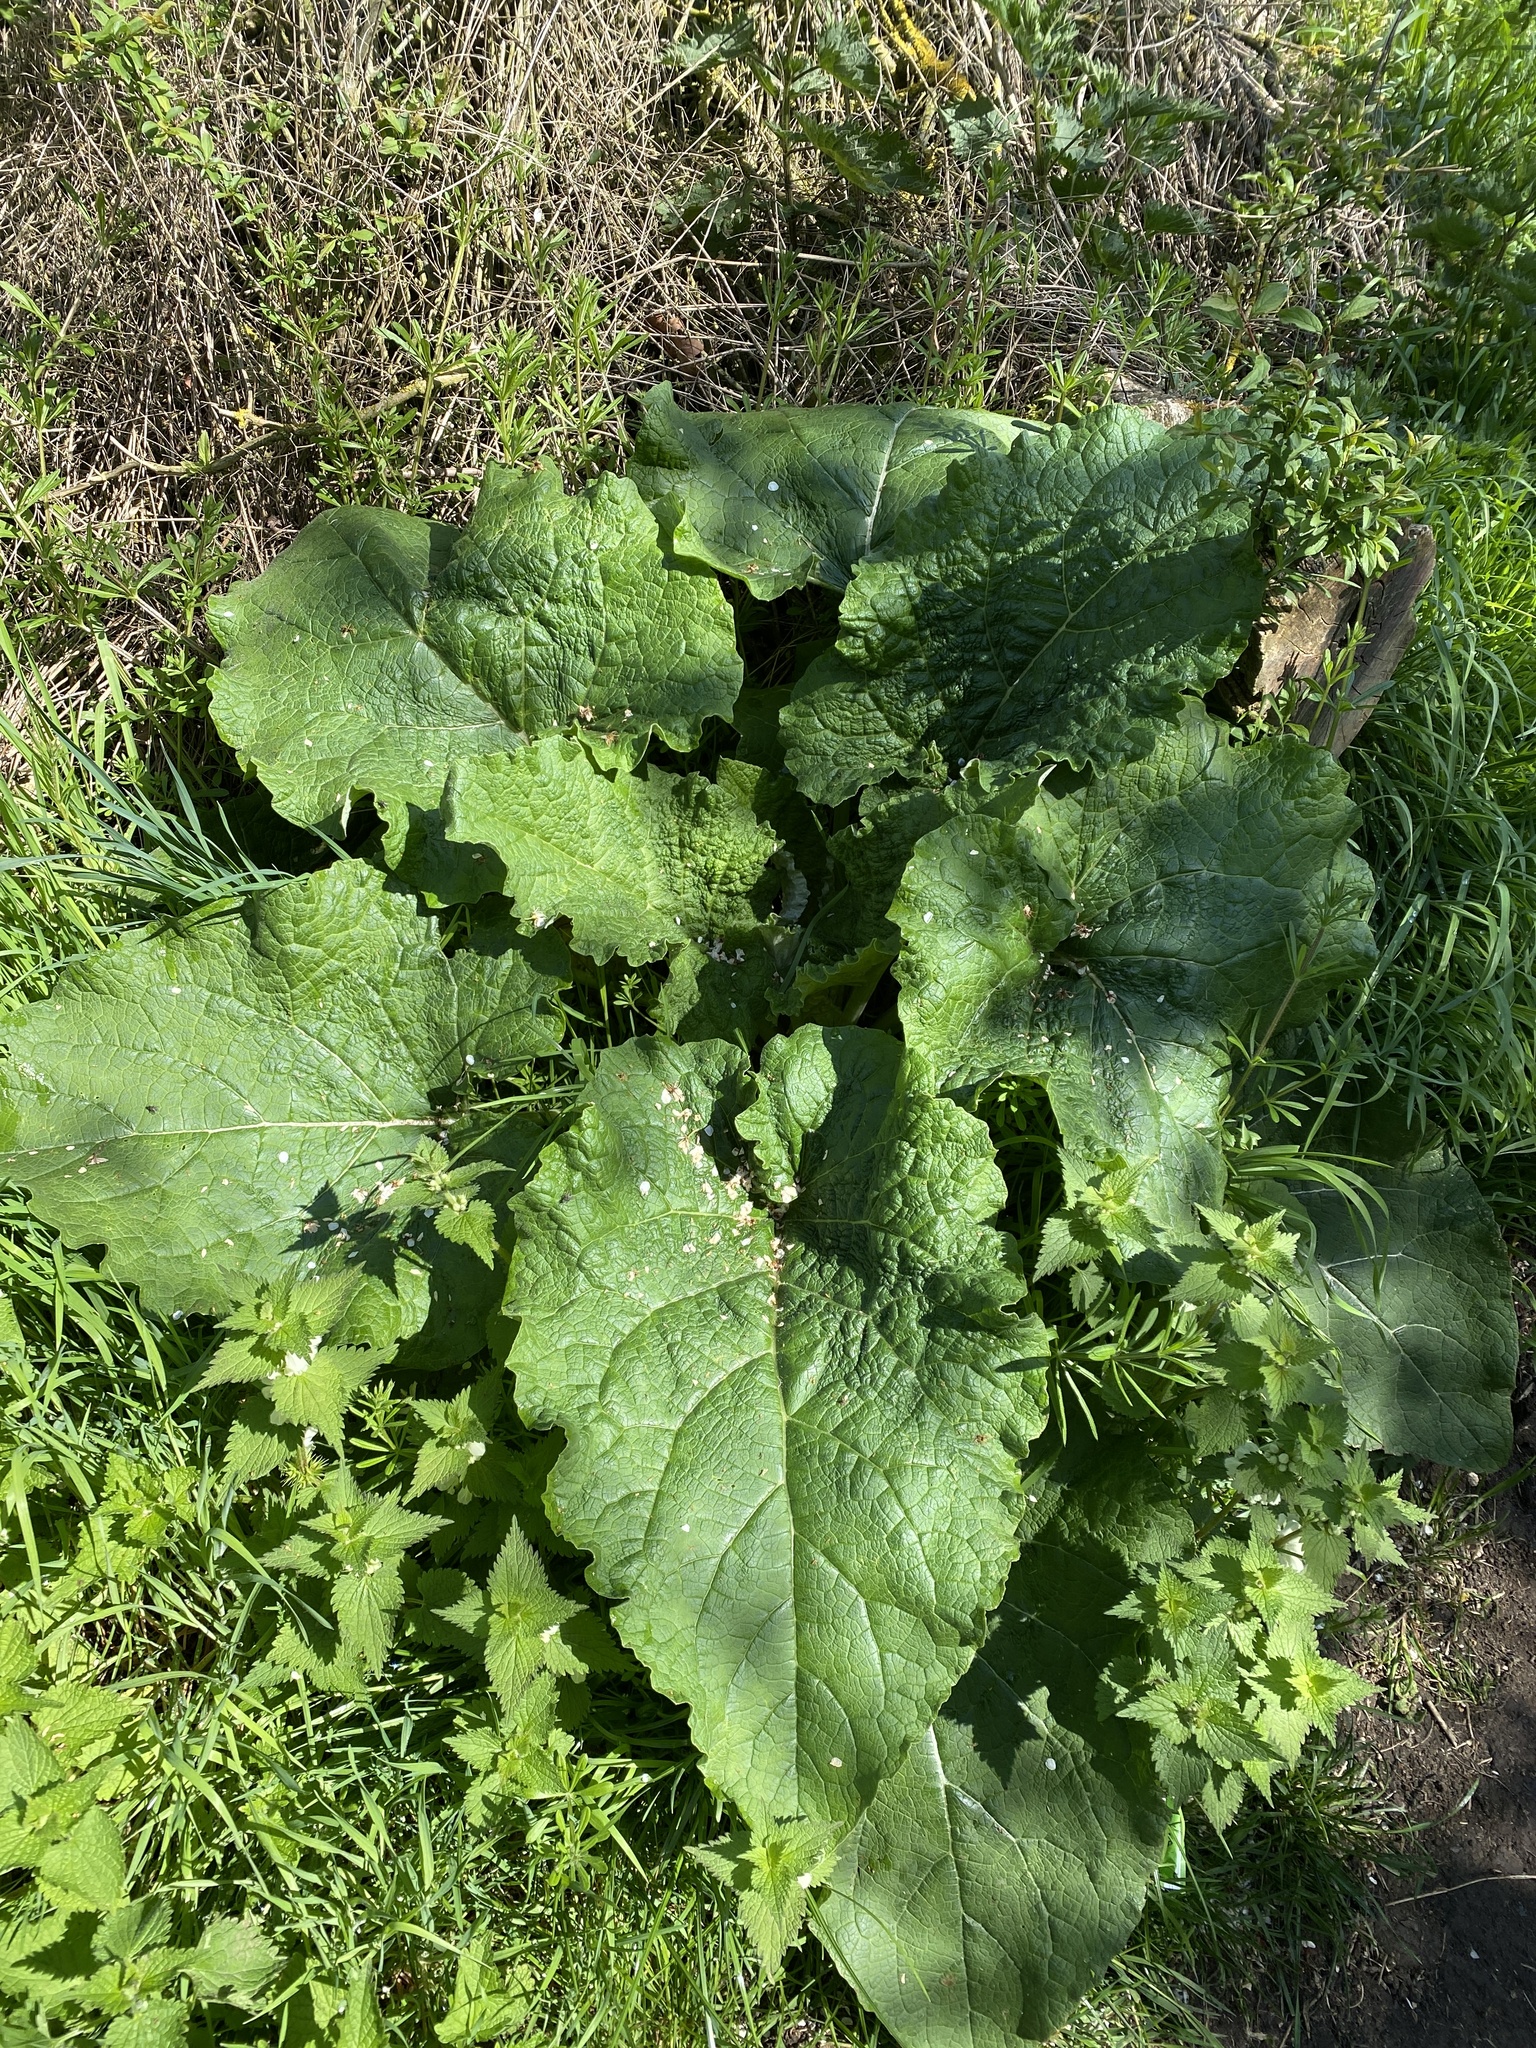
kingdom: Plantae
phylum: Tracheophyta
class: Magnoliopsida
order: Asterales
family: Asteraceae
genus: Arctium
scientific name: Arctium lappa
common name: Greater burdock
